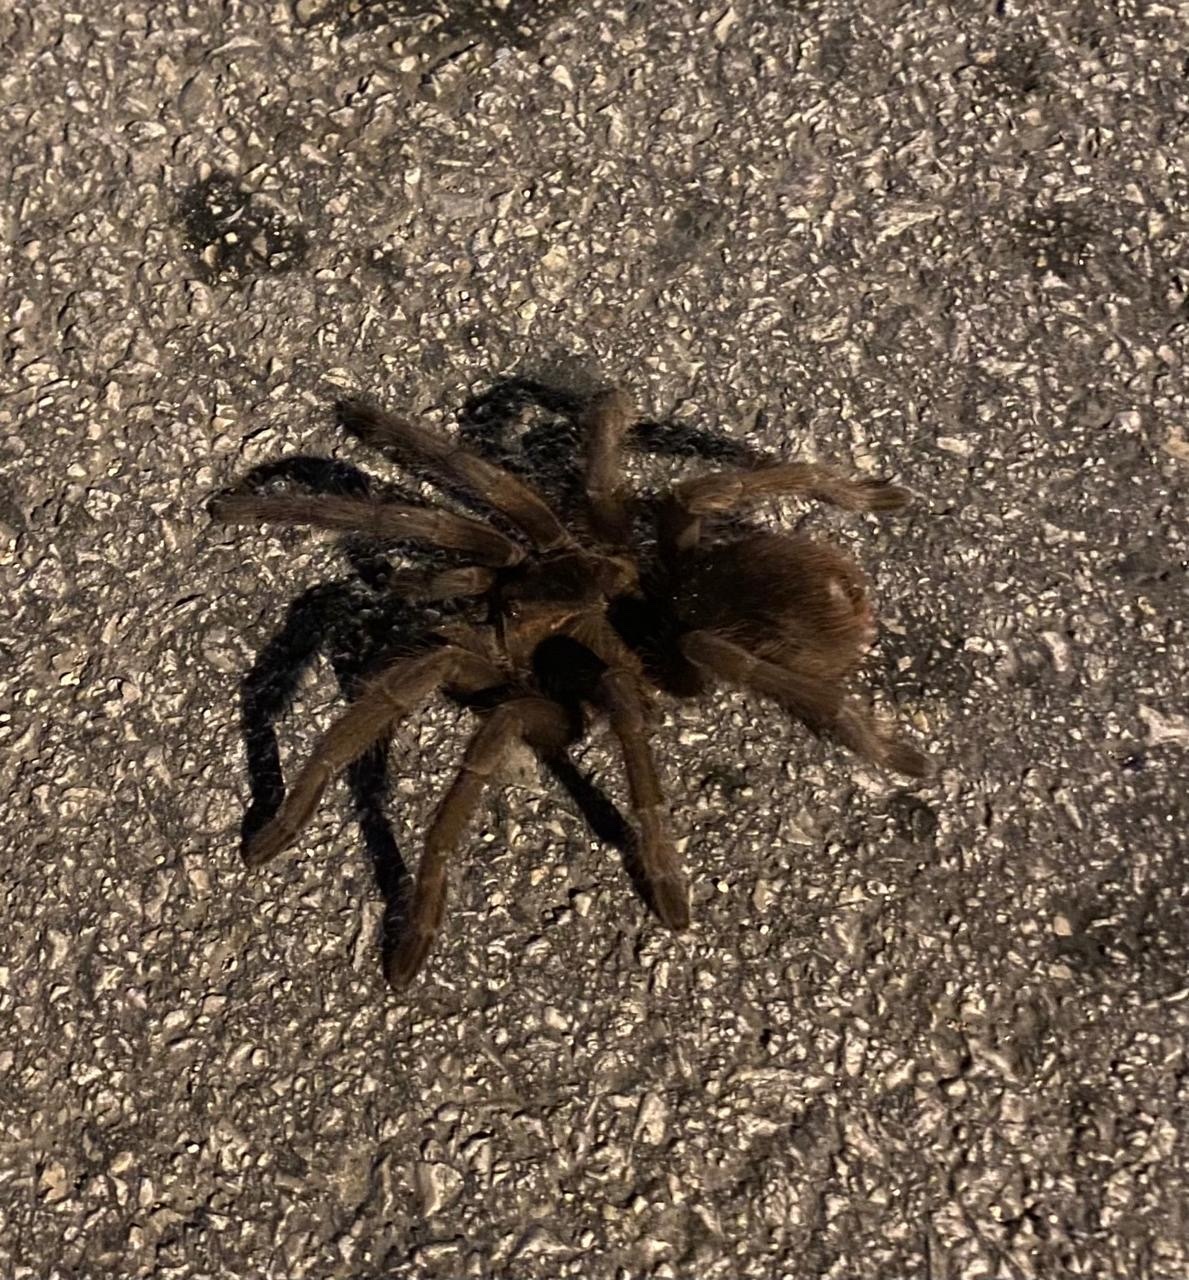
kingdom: Animalia
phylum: Arthropoda
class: Arachnida
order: Araneae
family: Theraphosidae
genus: Phormictopus
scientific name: Phormictopus cancerides
